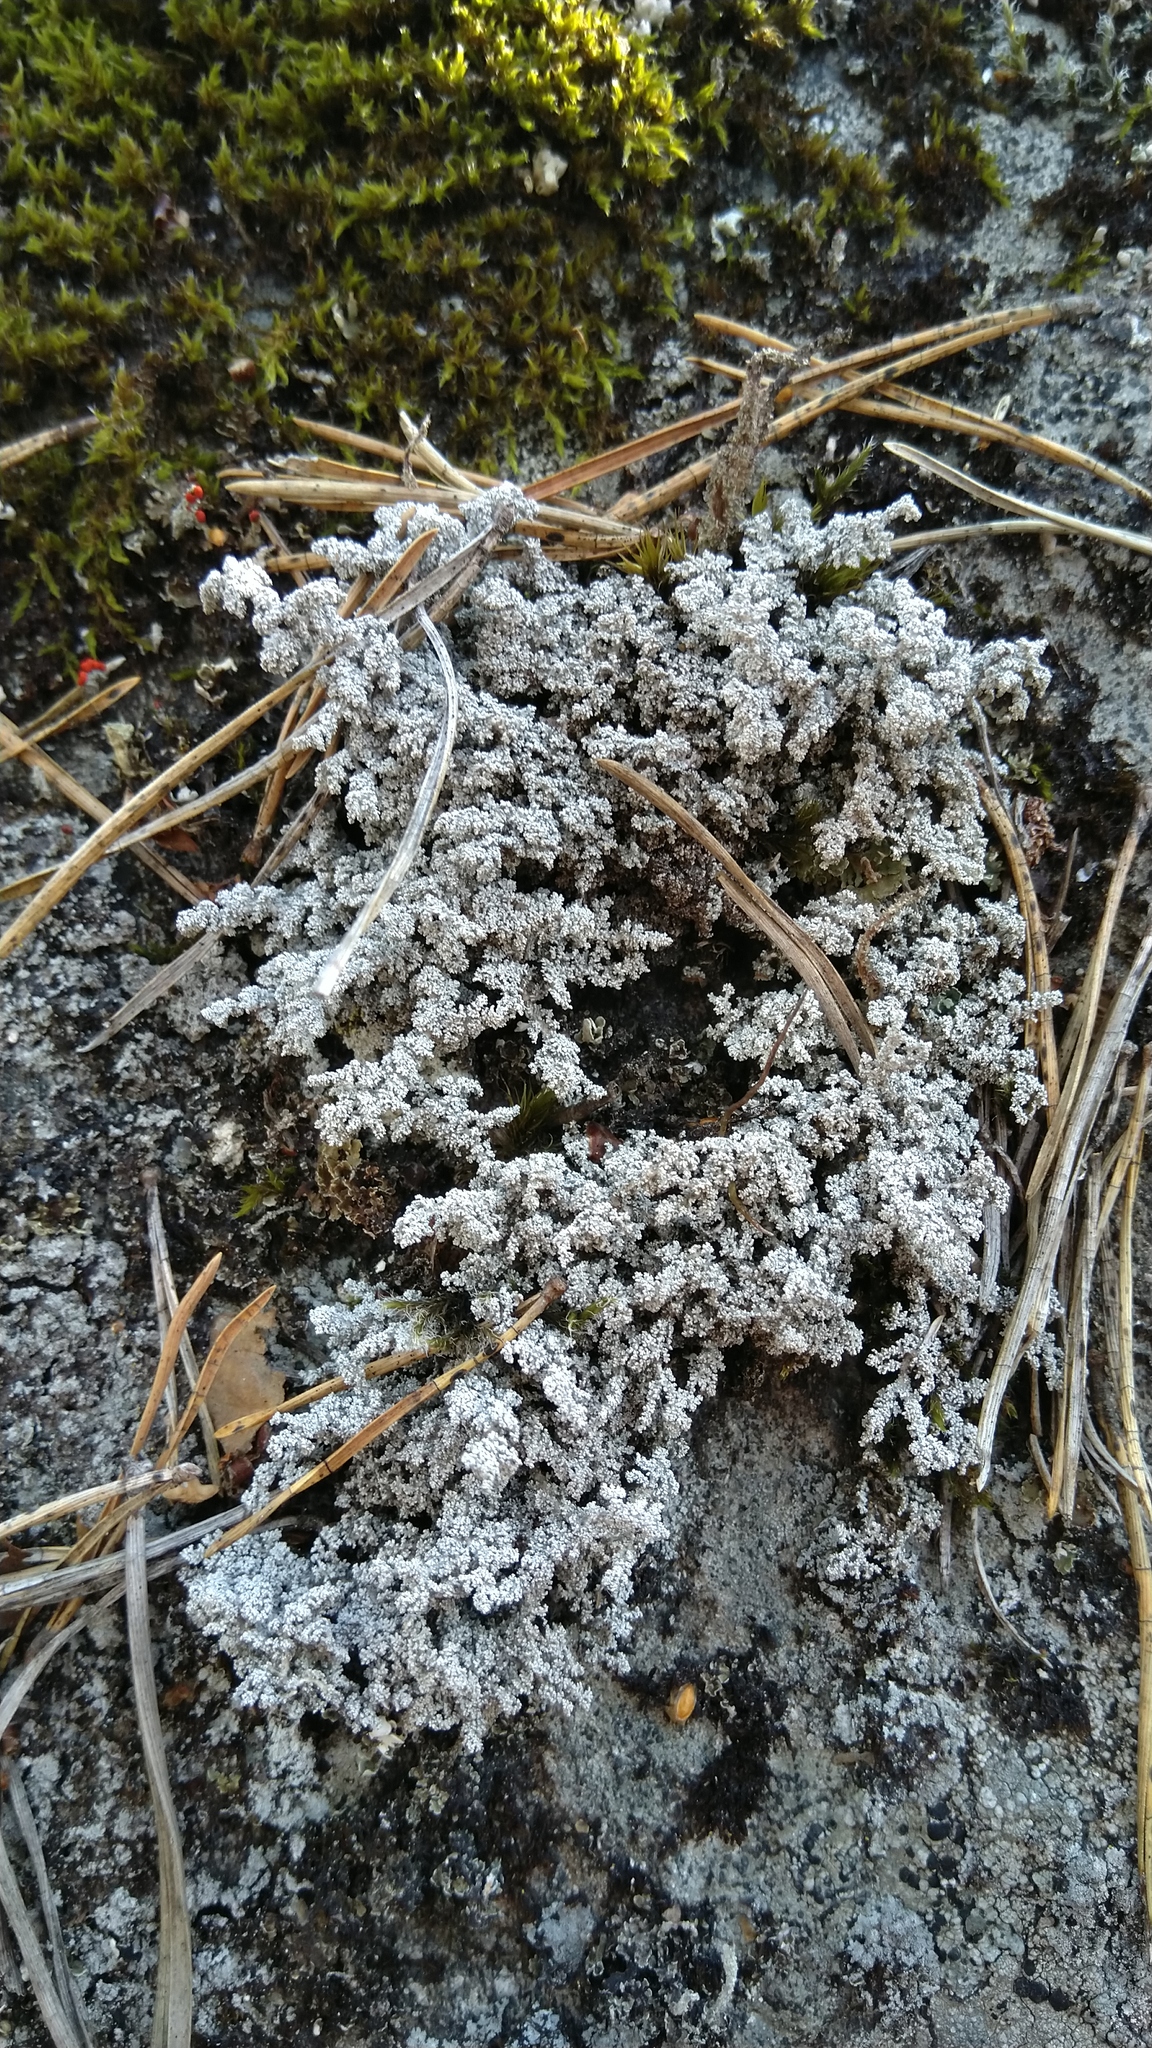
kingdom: Fungi
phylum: Ascomycota
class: Lecanoromycetes
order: Lecanorales
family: Stereocaulaceae
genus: Stereocaulon
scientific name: Stereocaulon
